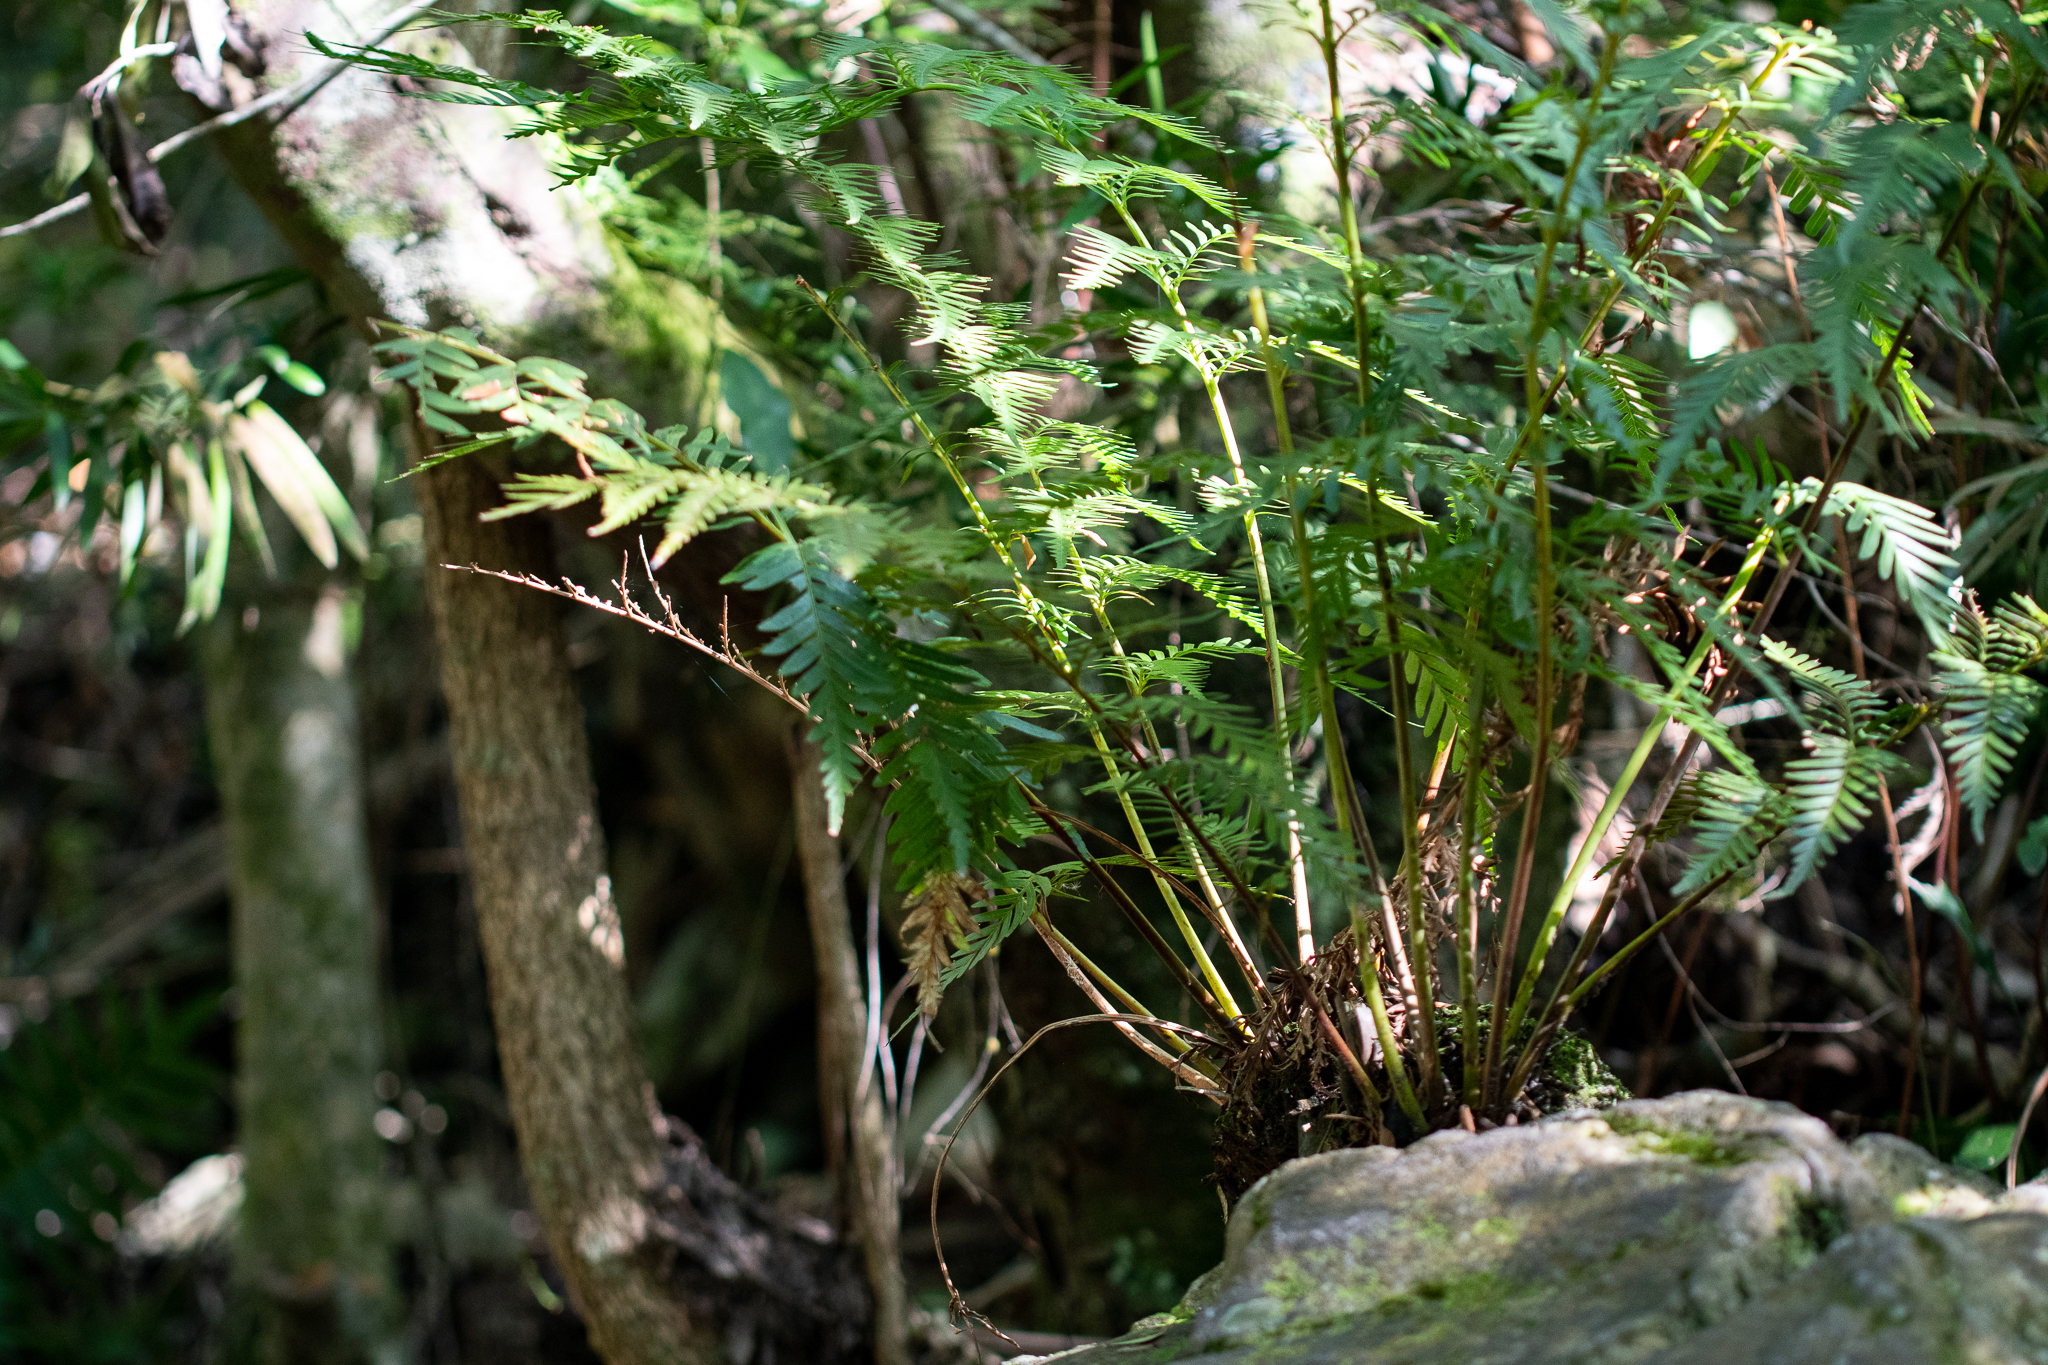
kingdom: Plantae
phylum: Tracheophyta
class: Polypodiopsida
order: Osmundales
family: Osmundaceae
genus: Todea
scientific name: Todea barbara
